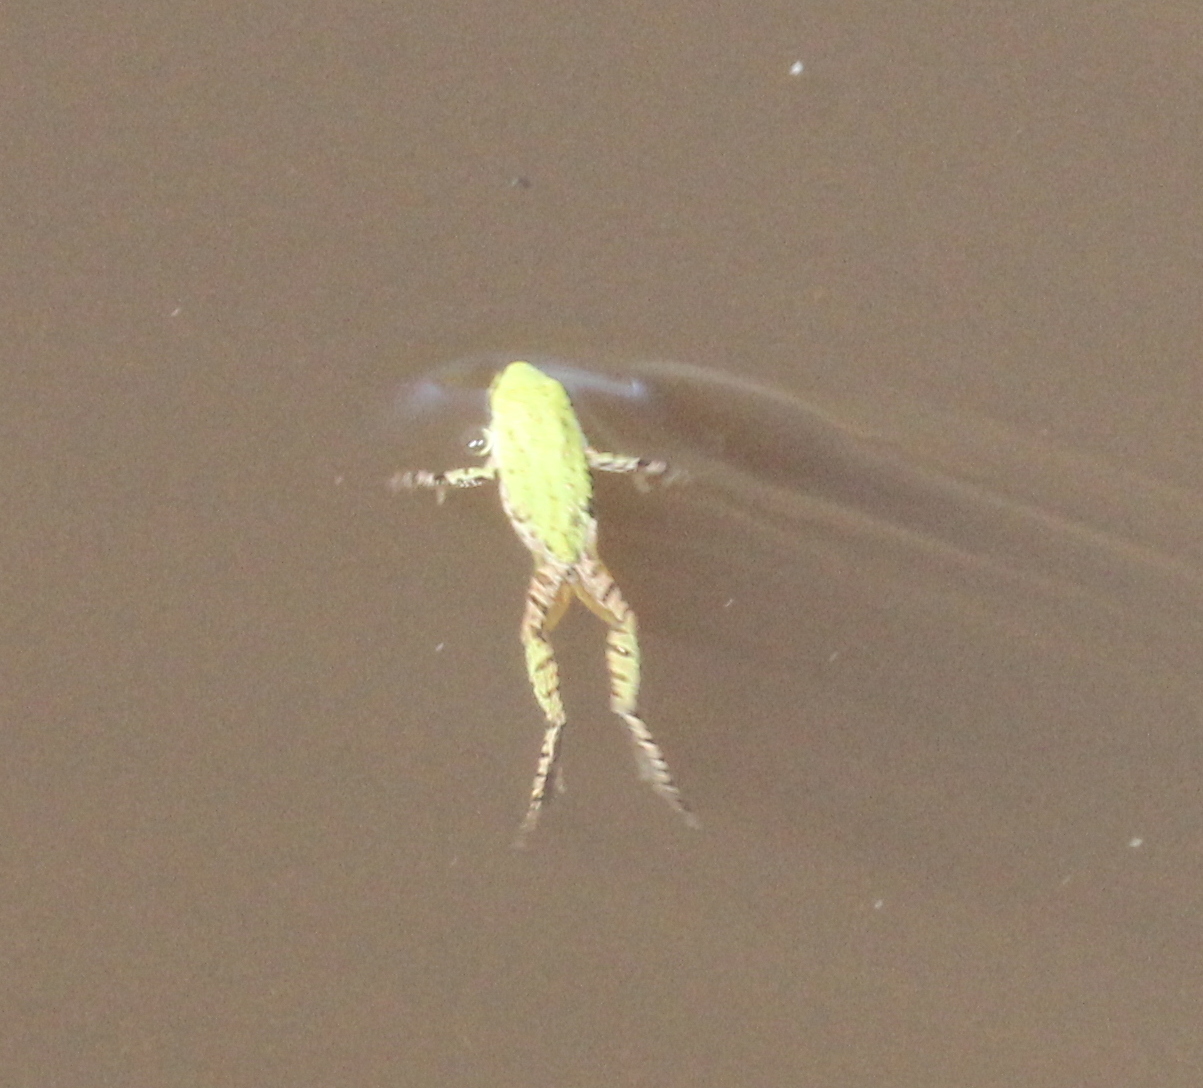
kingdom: Animalia
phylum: Chordata
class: Amphibia
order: Anura
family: Hylidae
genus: Pseudacris
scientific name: Pseudacris regilla
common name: Pacific chorus frog
